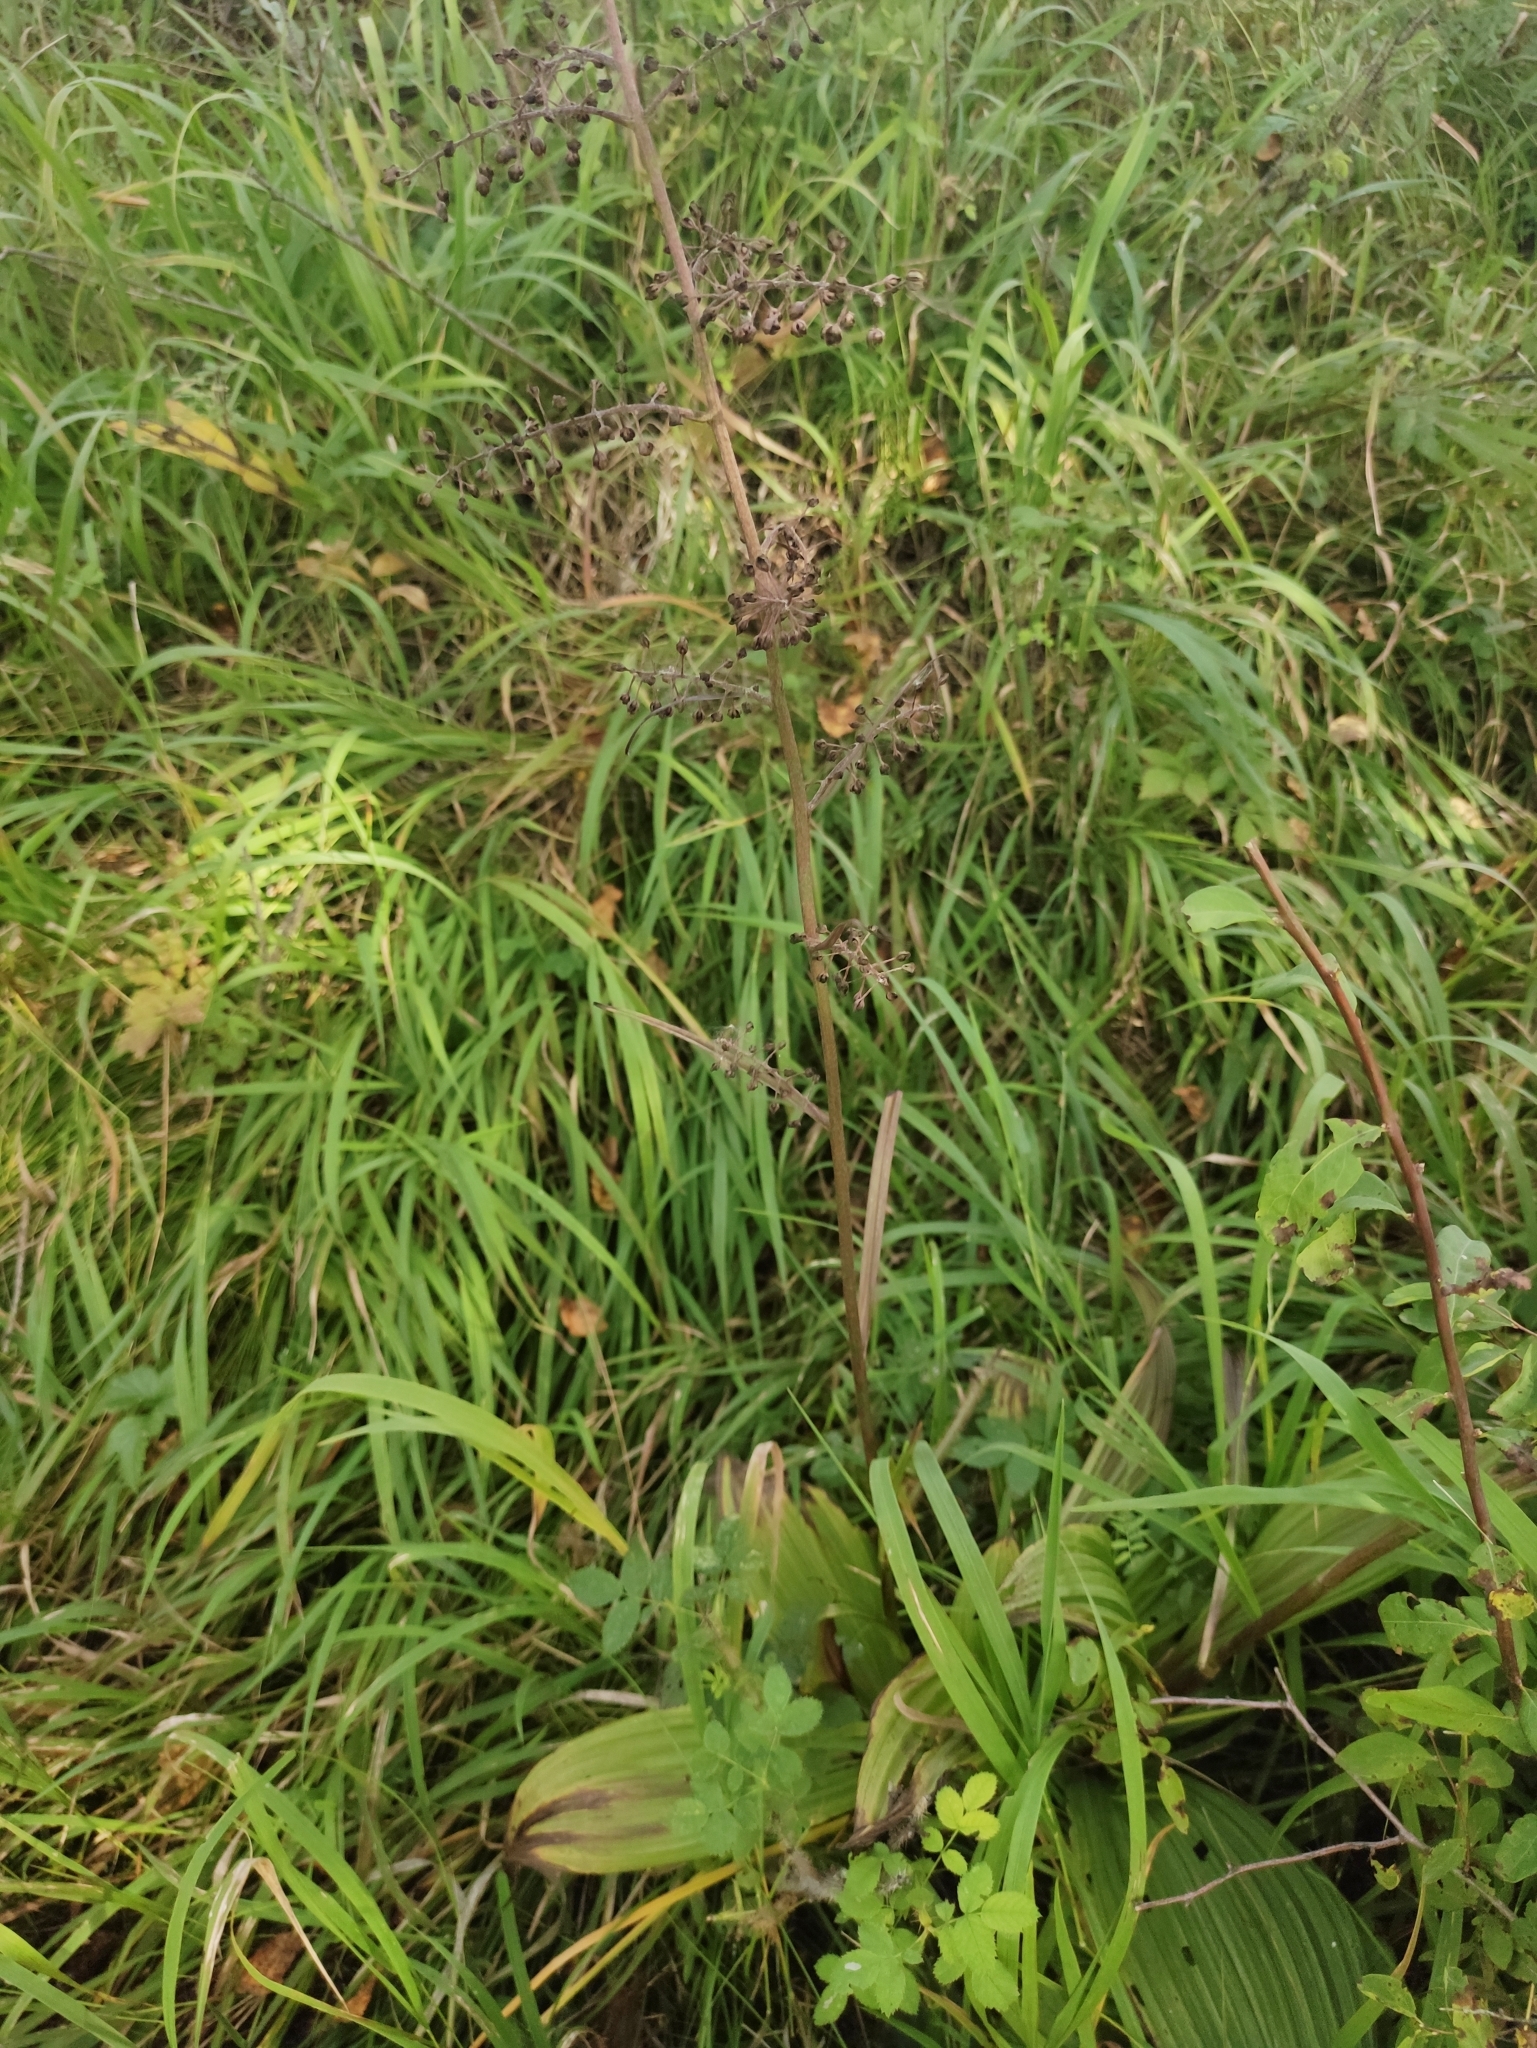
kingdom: Plantae
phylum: Tracheophyta
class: Liliopsida
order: Liliales
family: Melanthiaceae
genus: Veratrum
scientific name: Veratrum nigrum
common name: Black veratrum
